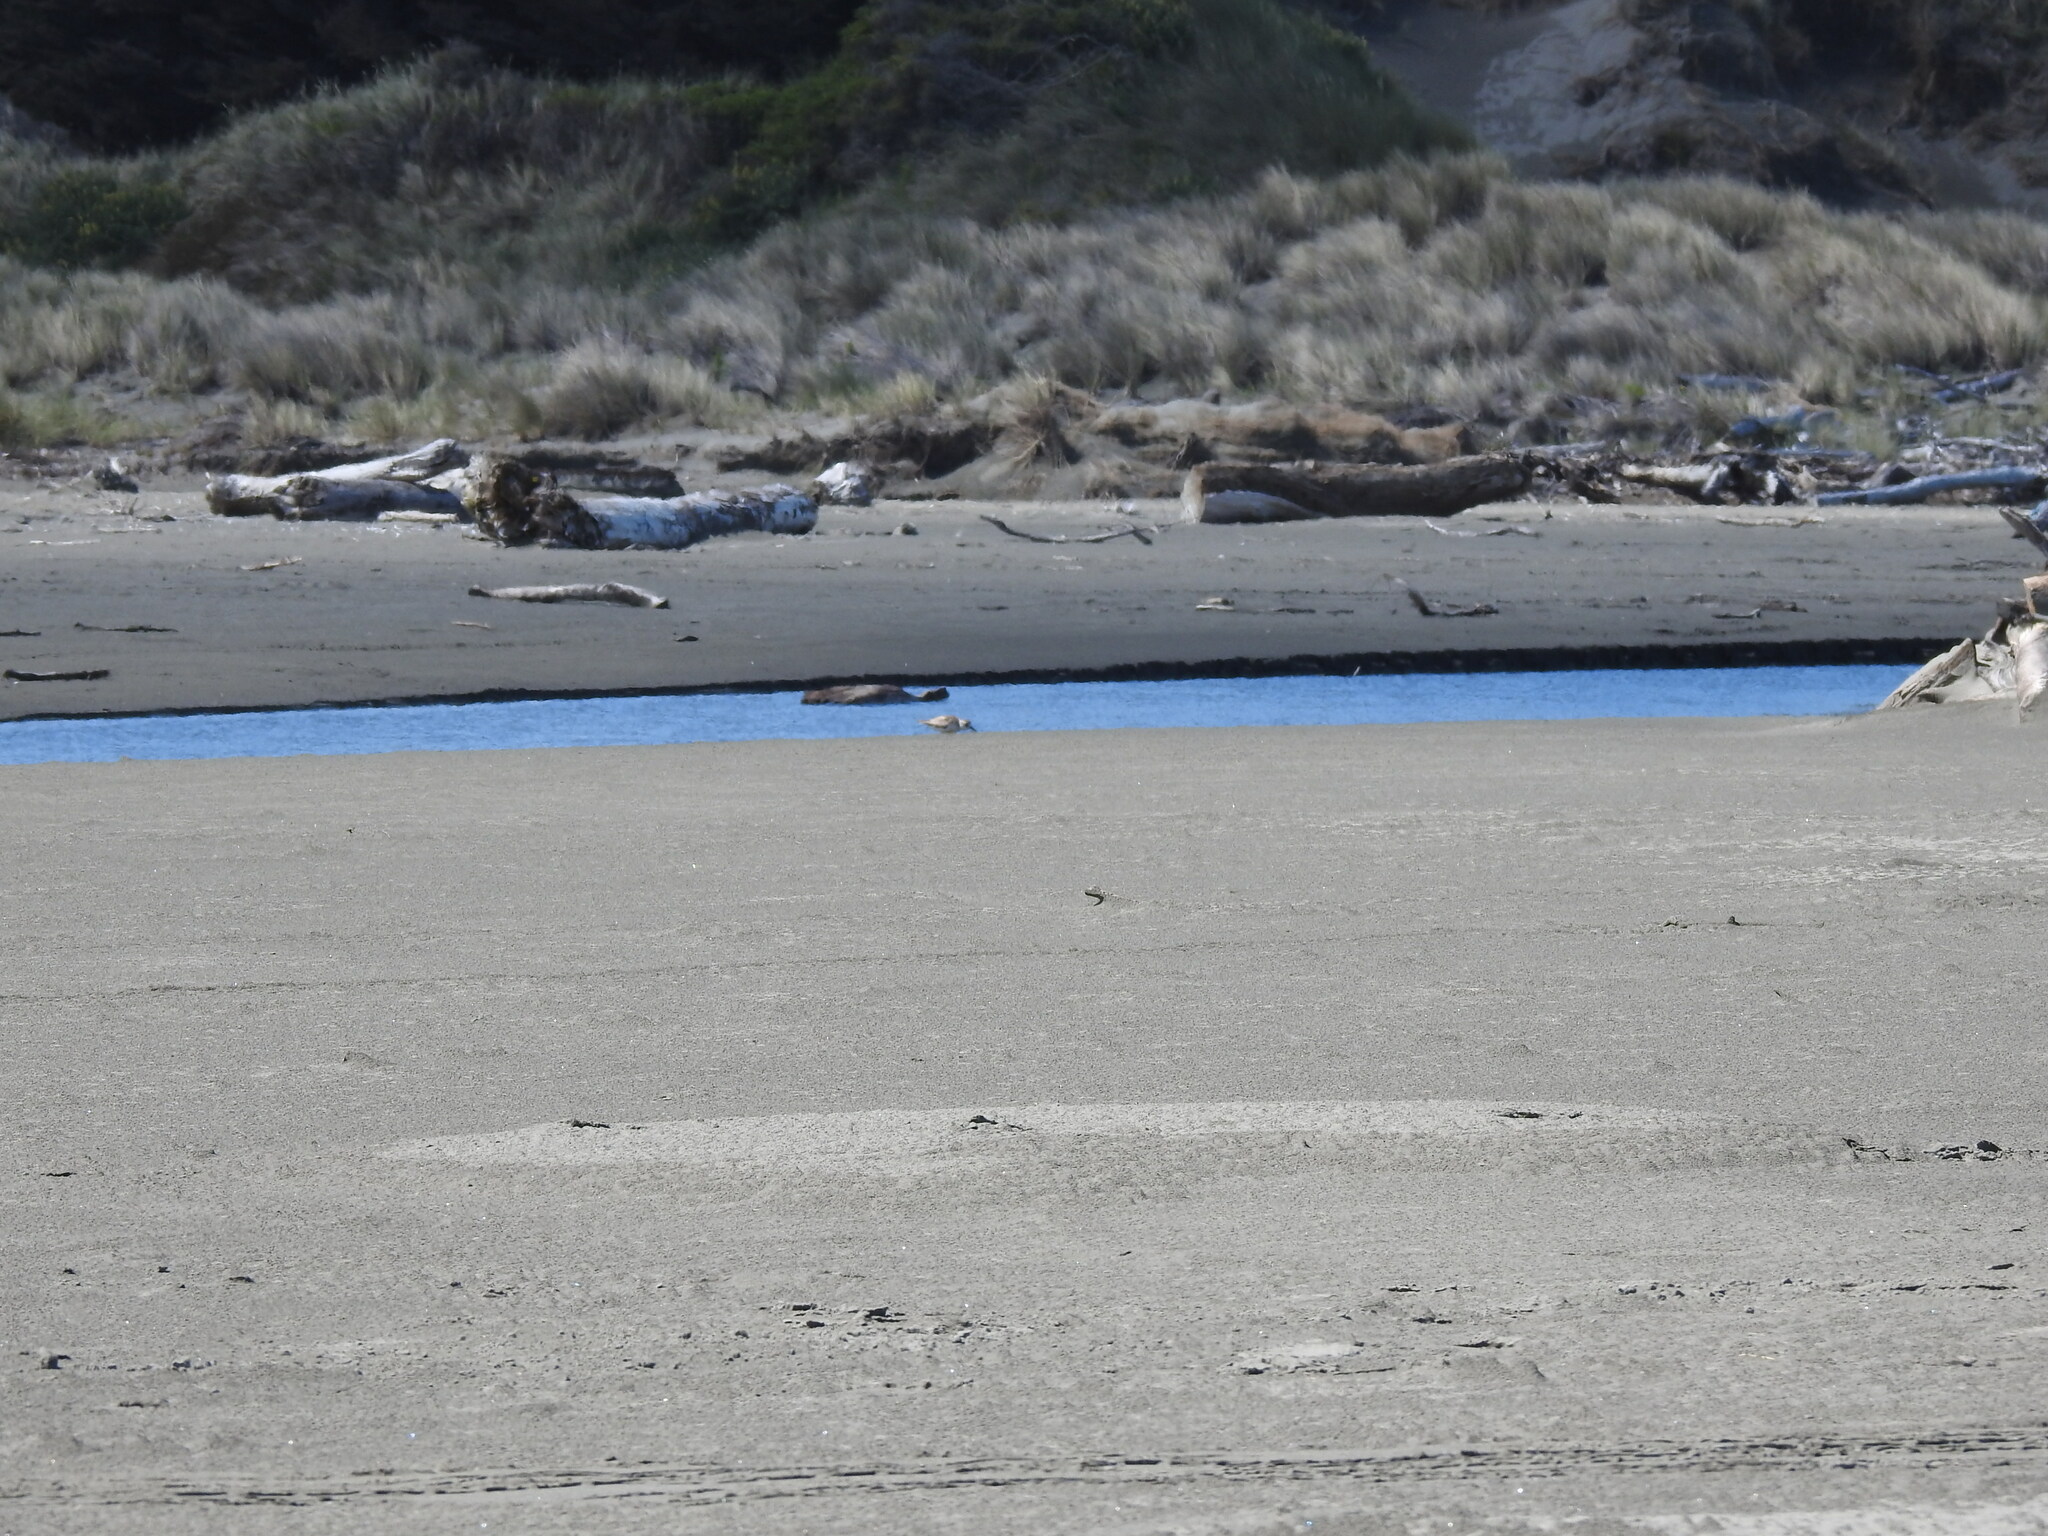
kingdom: Animalia
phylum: Chordata
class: Aves
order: Charadriiformes
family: Charadriidae
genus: Anarhynchus
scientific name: Anarhynchus
